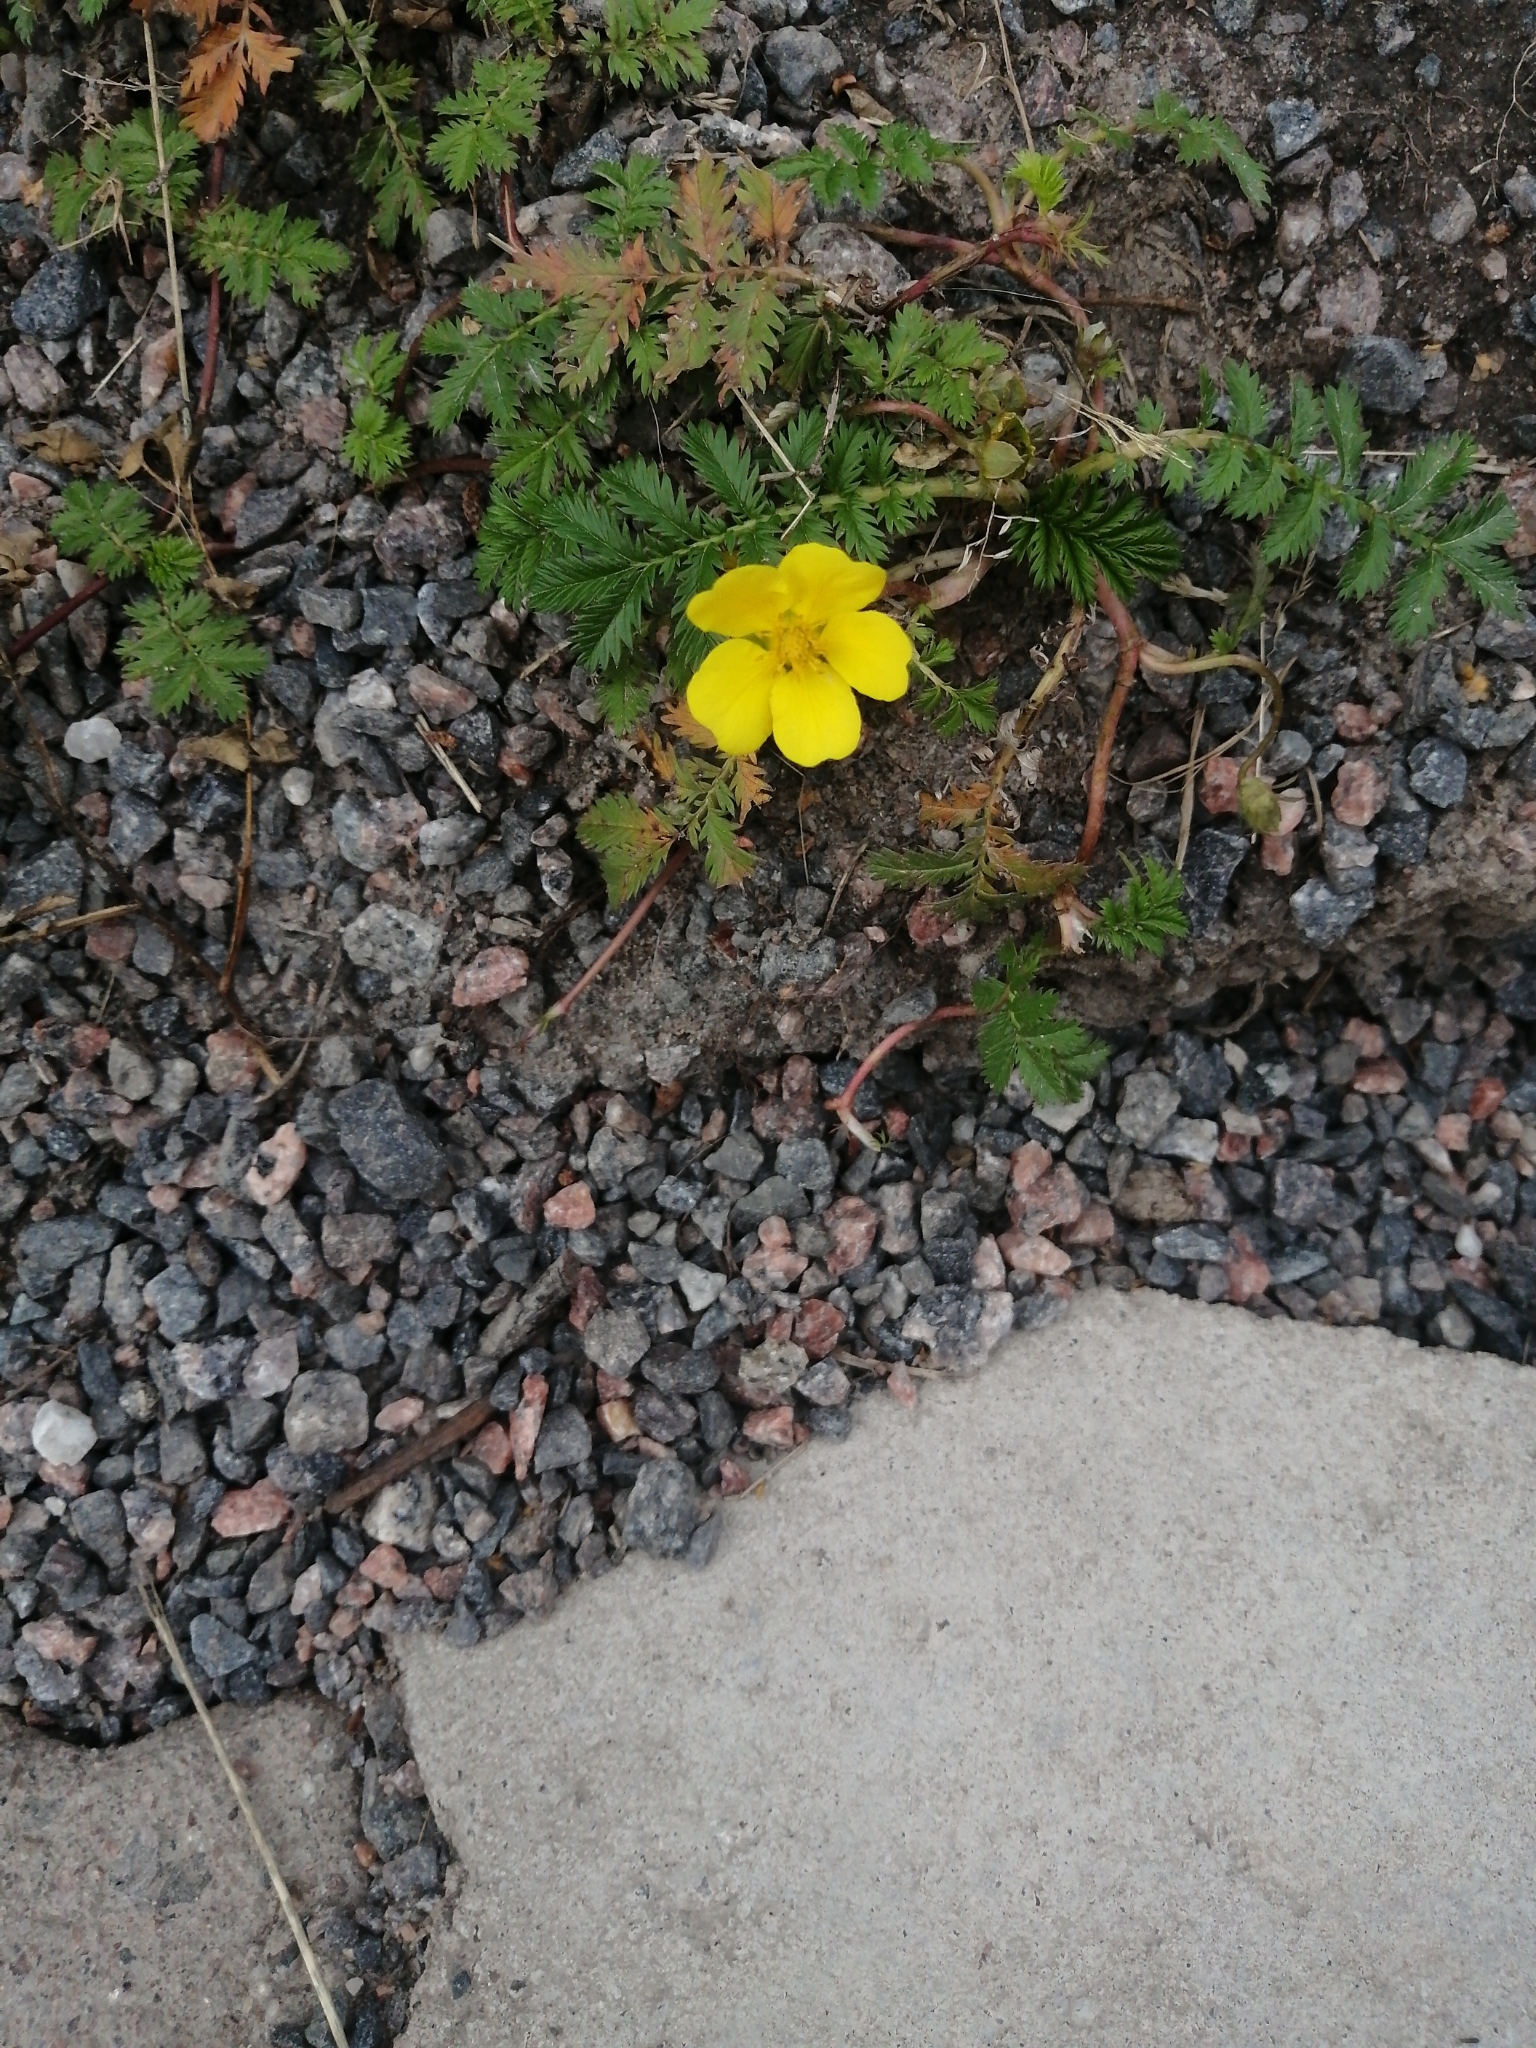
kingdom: Plantae
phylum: Tracheophyta
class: Magnoliopsida
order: Rosales
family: Rosaceae
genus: Argentina
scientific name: Argentina anserina
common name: Common silverweed
